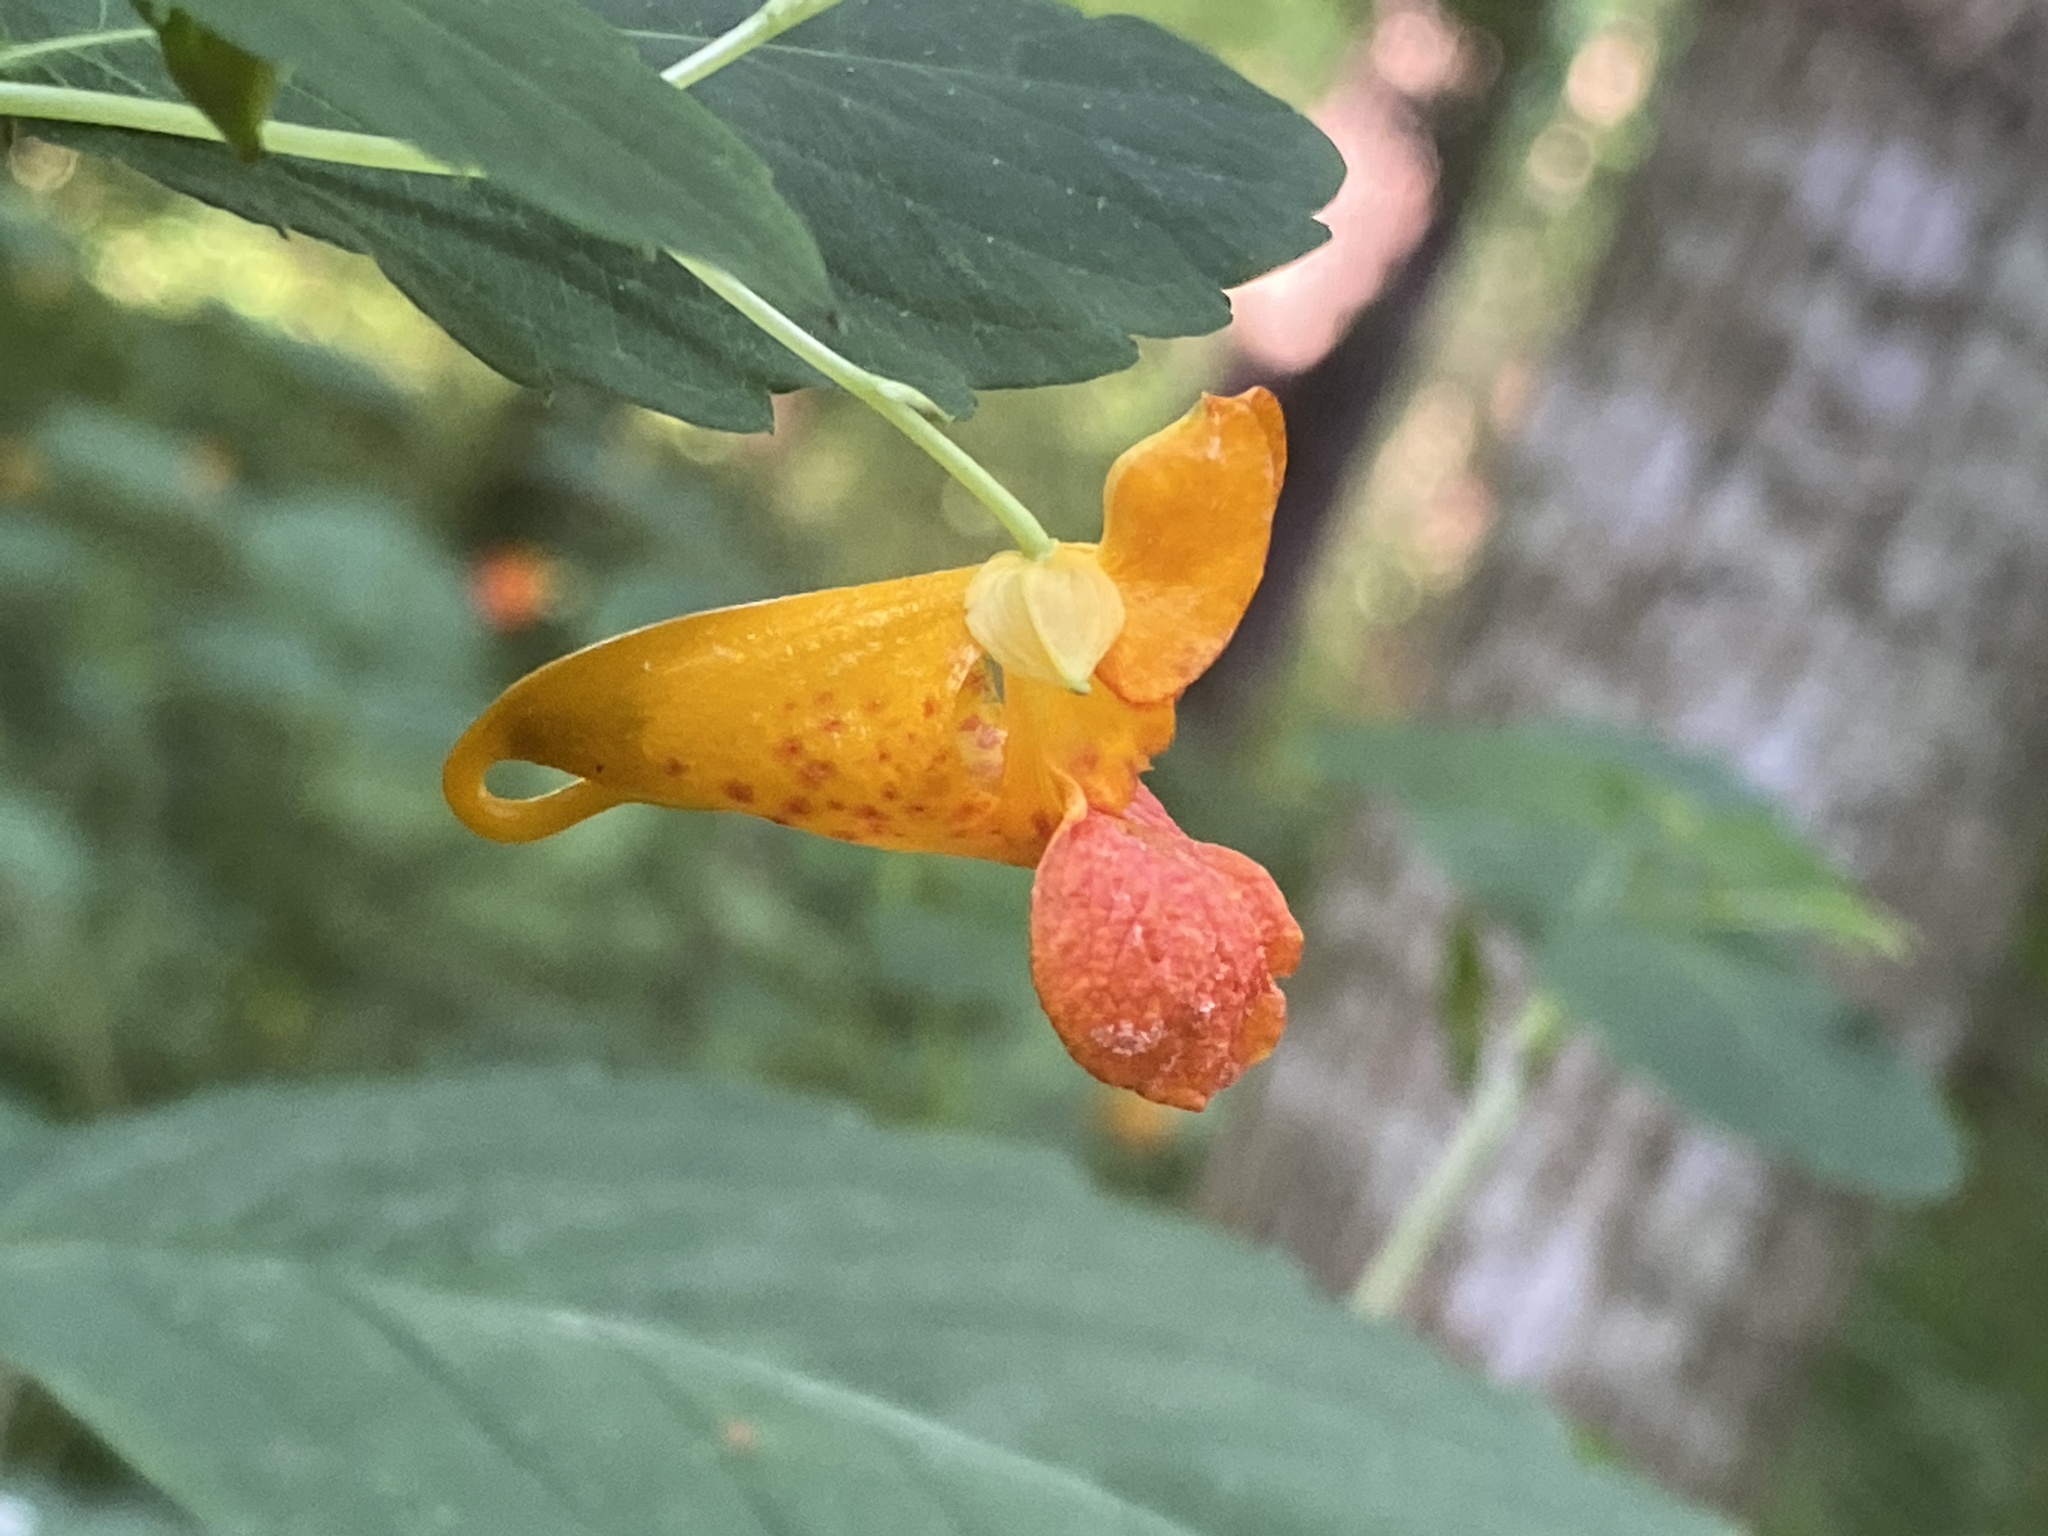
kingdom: Plantae
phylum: Tracheophyta
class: Magnoliopsida
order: Ericales
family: Balsaminaceae
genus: Impatiens
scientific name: Impatiens capensis
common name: Orange balsam
